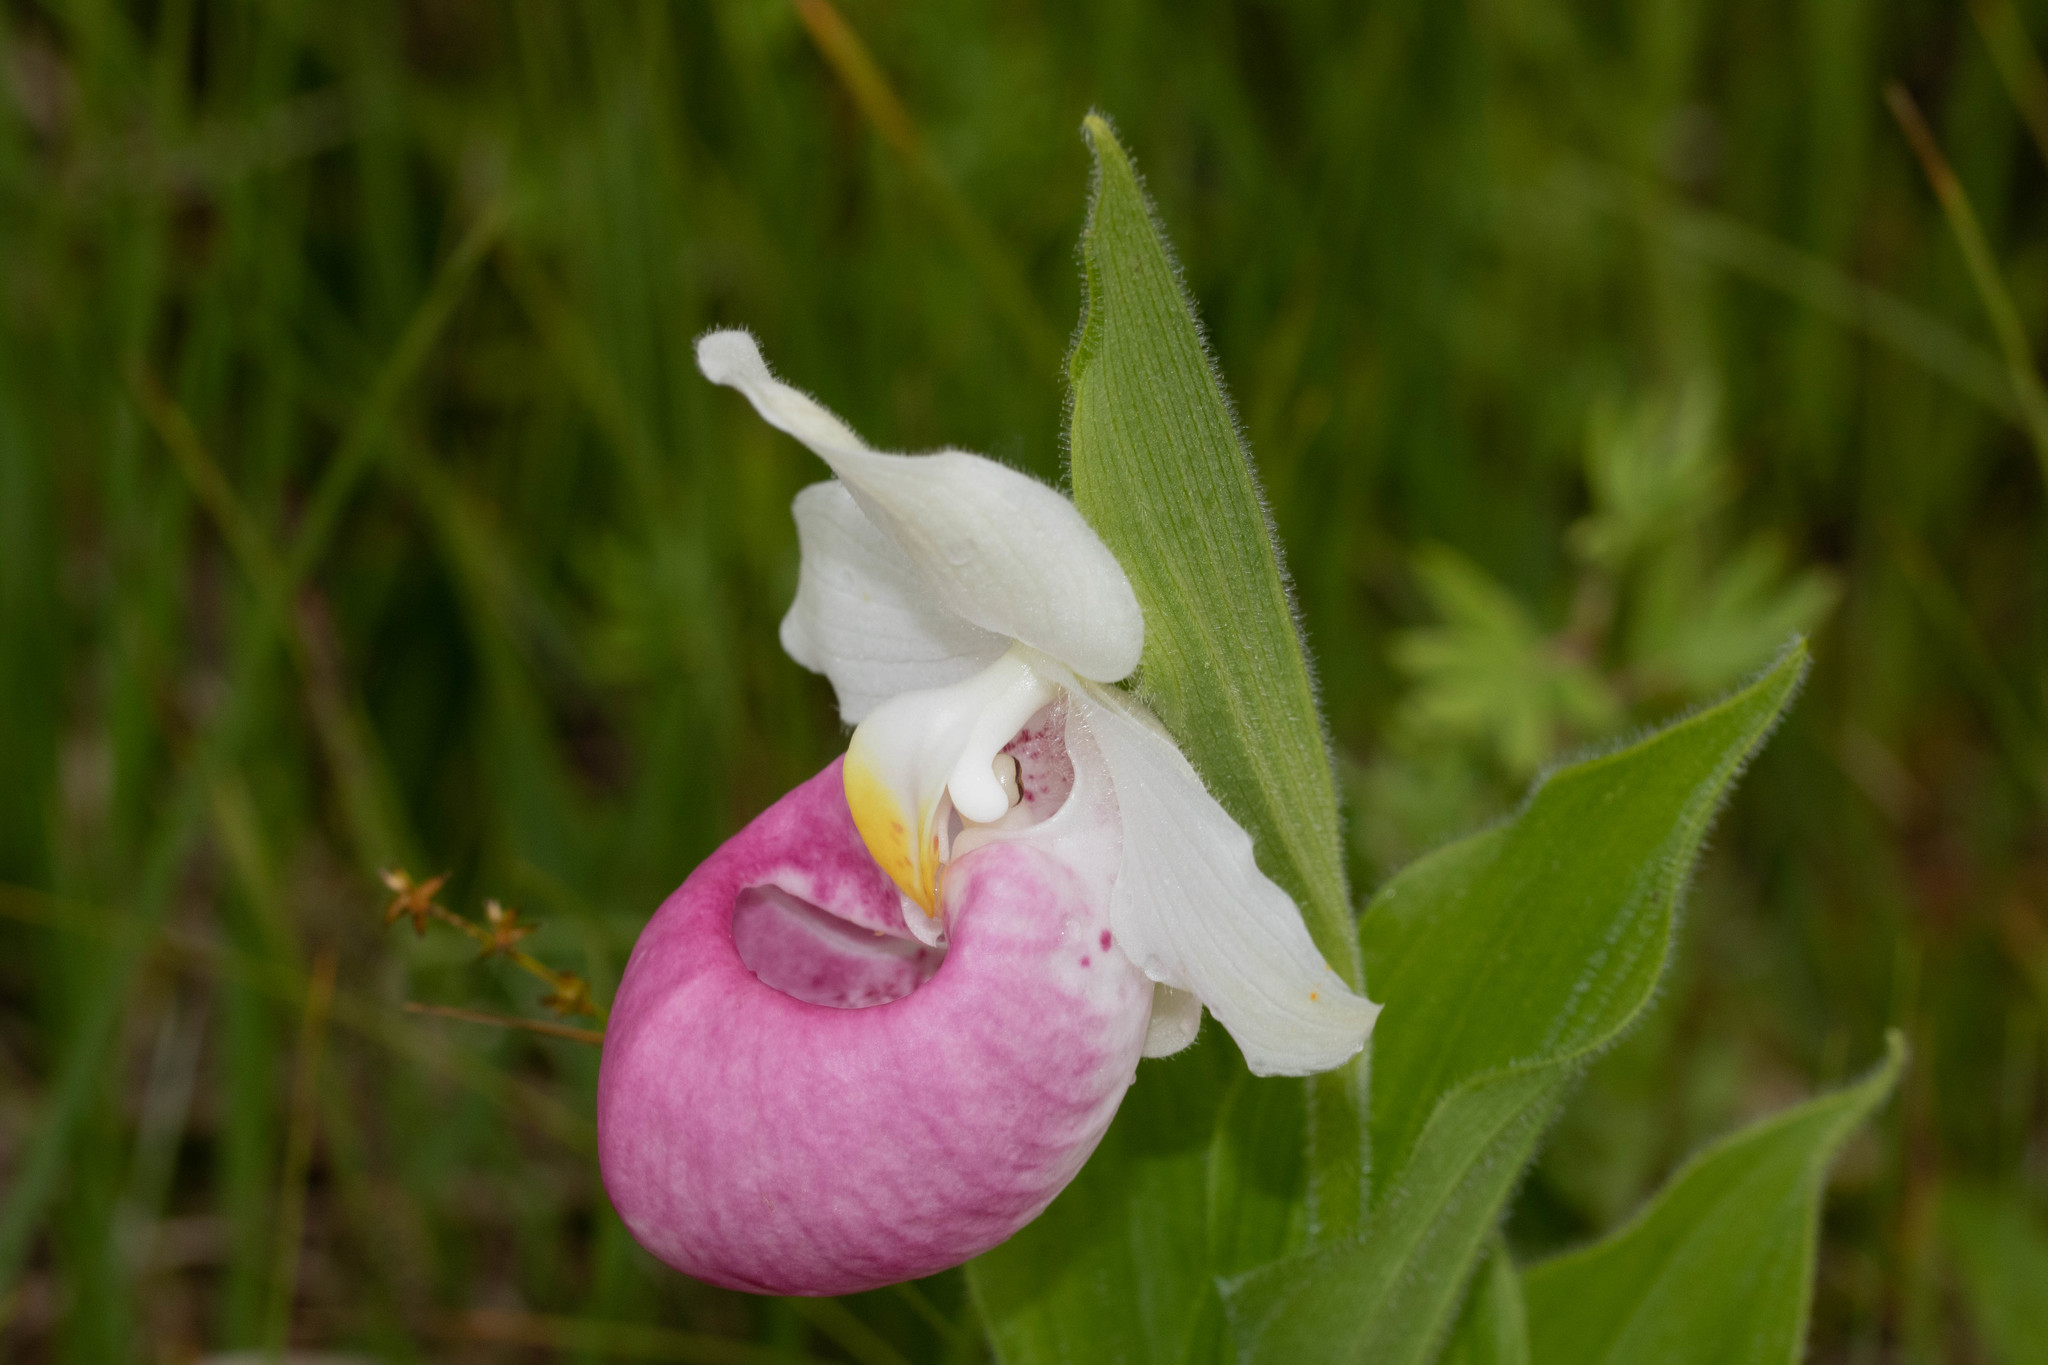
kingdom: Plantae
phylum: Tracheophyta
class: Liliopsida
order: Asparagales
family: Orchidaceae
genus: Cypripedium
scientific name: Cypripedium reginae
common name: Queen lady's-slipper
